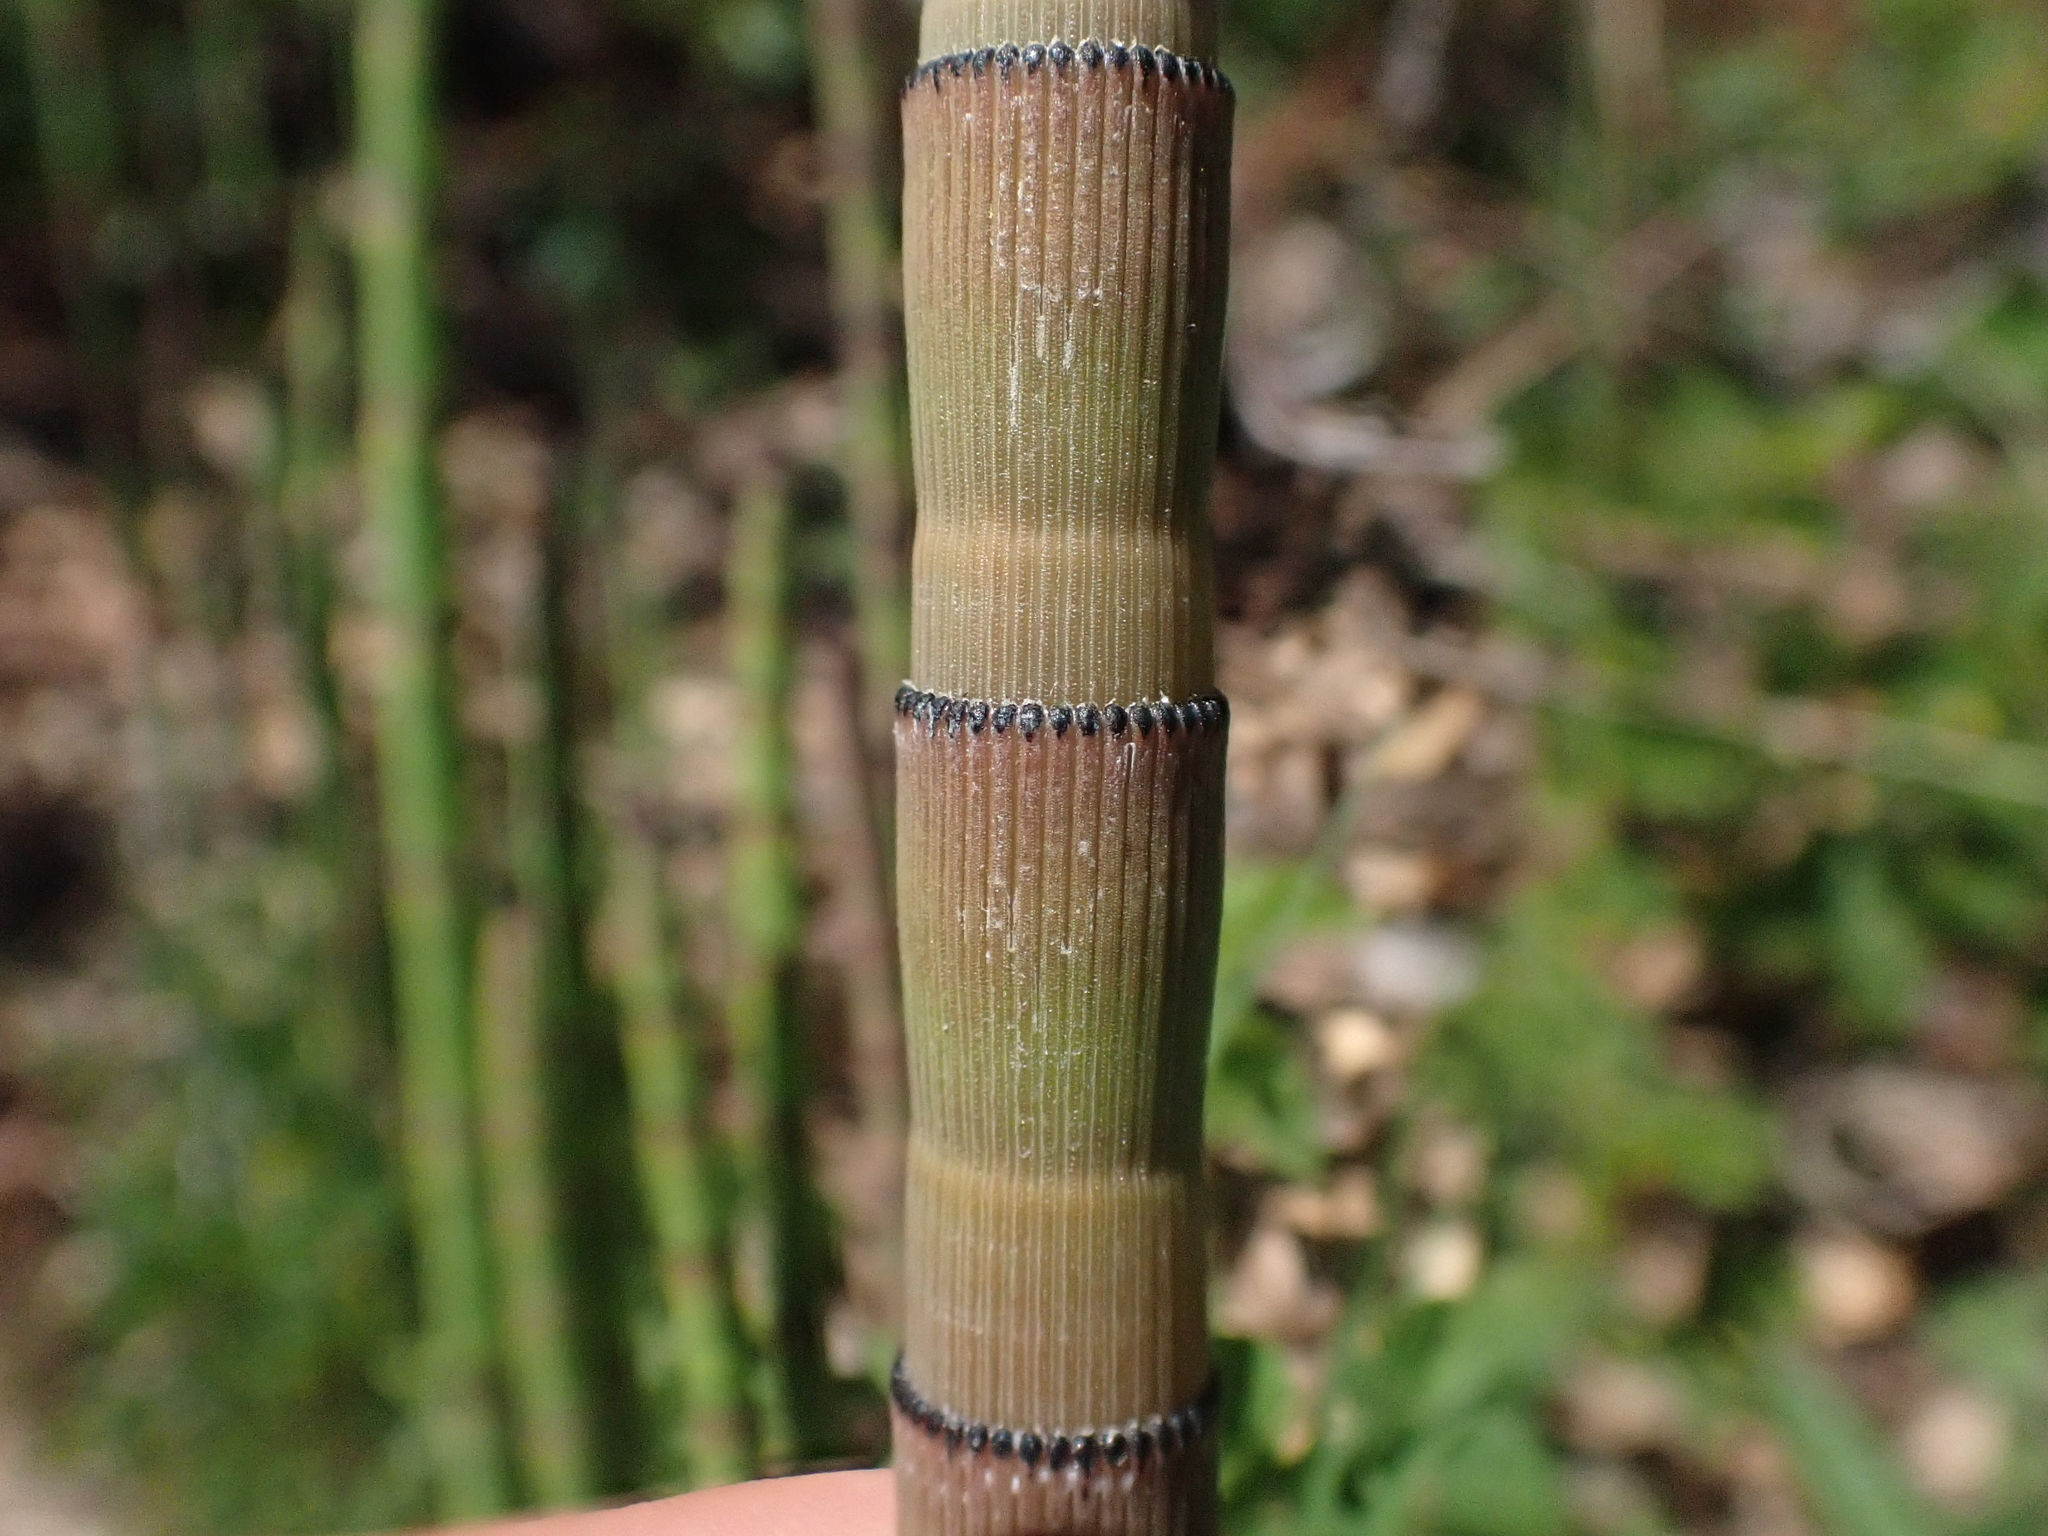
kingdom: Plantae
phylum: Tracheophyta
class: Polypodiopsida
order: Equisetales
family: Equisetaceae
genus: Equisetum
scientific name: Equisetum laevigatum
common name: Smooth scouring-rush
